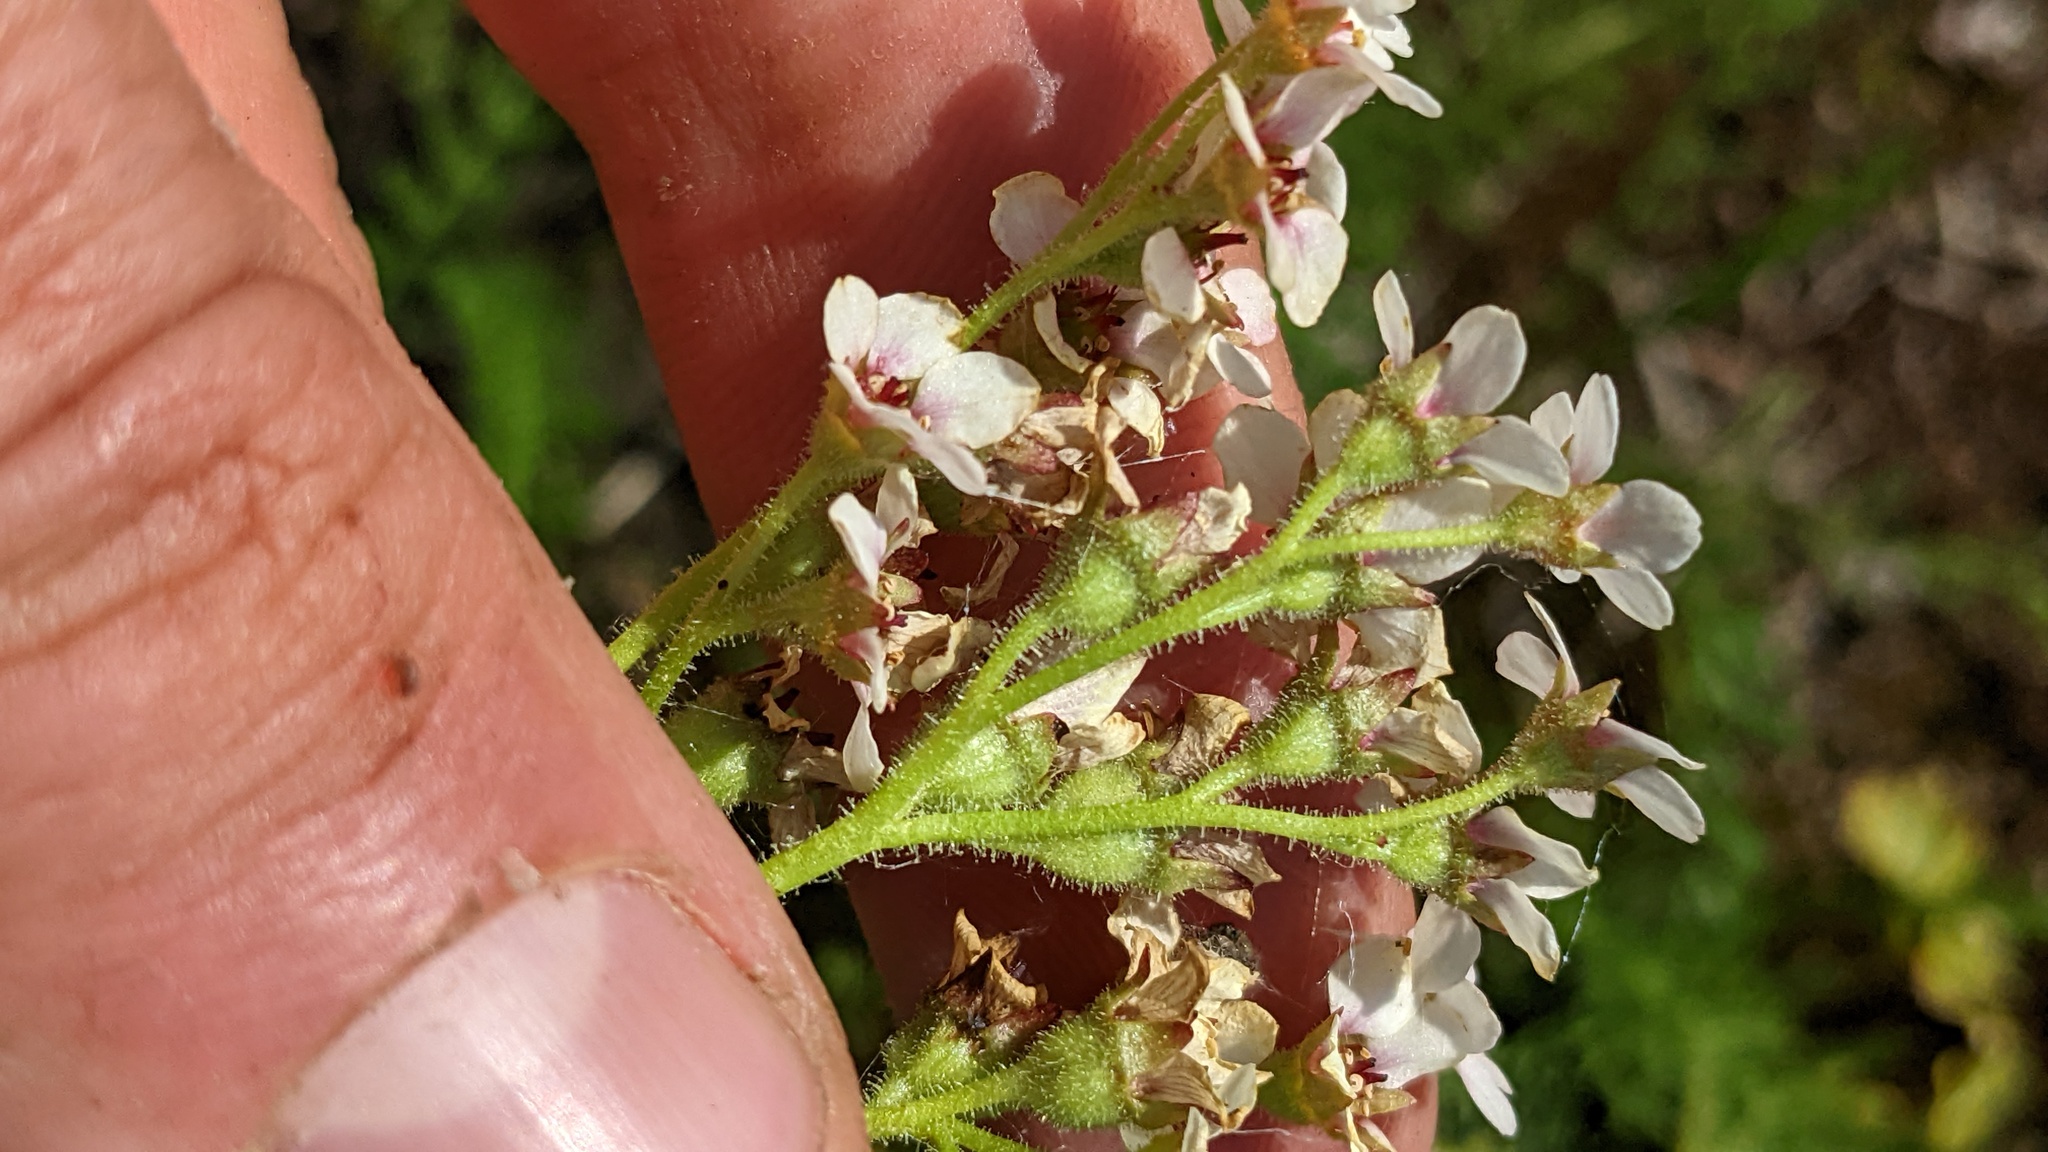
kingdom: Plantae
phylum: Tracheophyta
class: Magnoliopsida
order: Saxifragales
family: Saxifragaceae
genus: Hemieva
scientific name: Hemieva ranunculifolia
